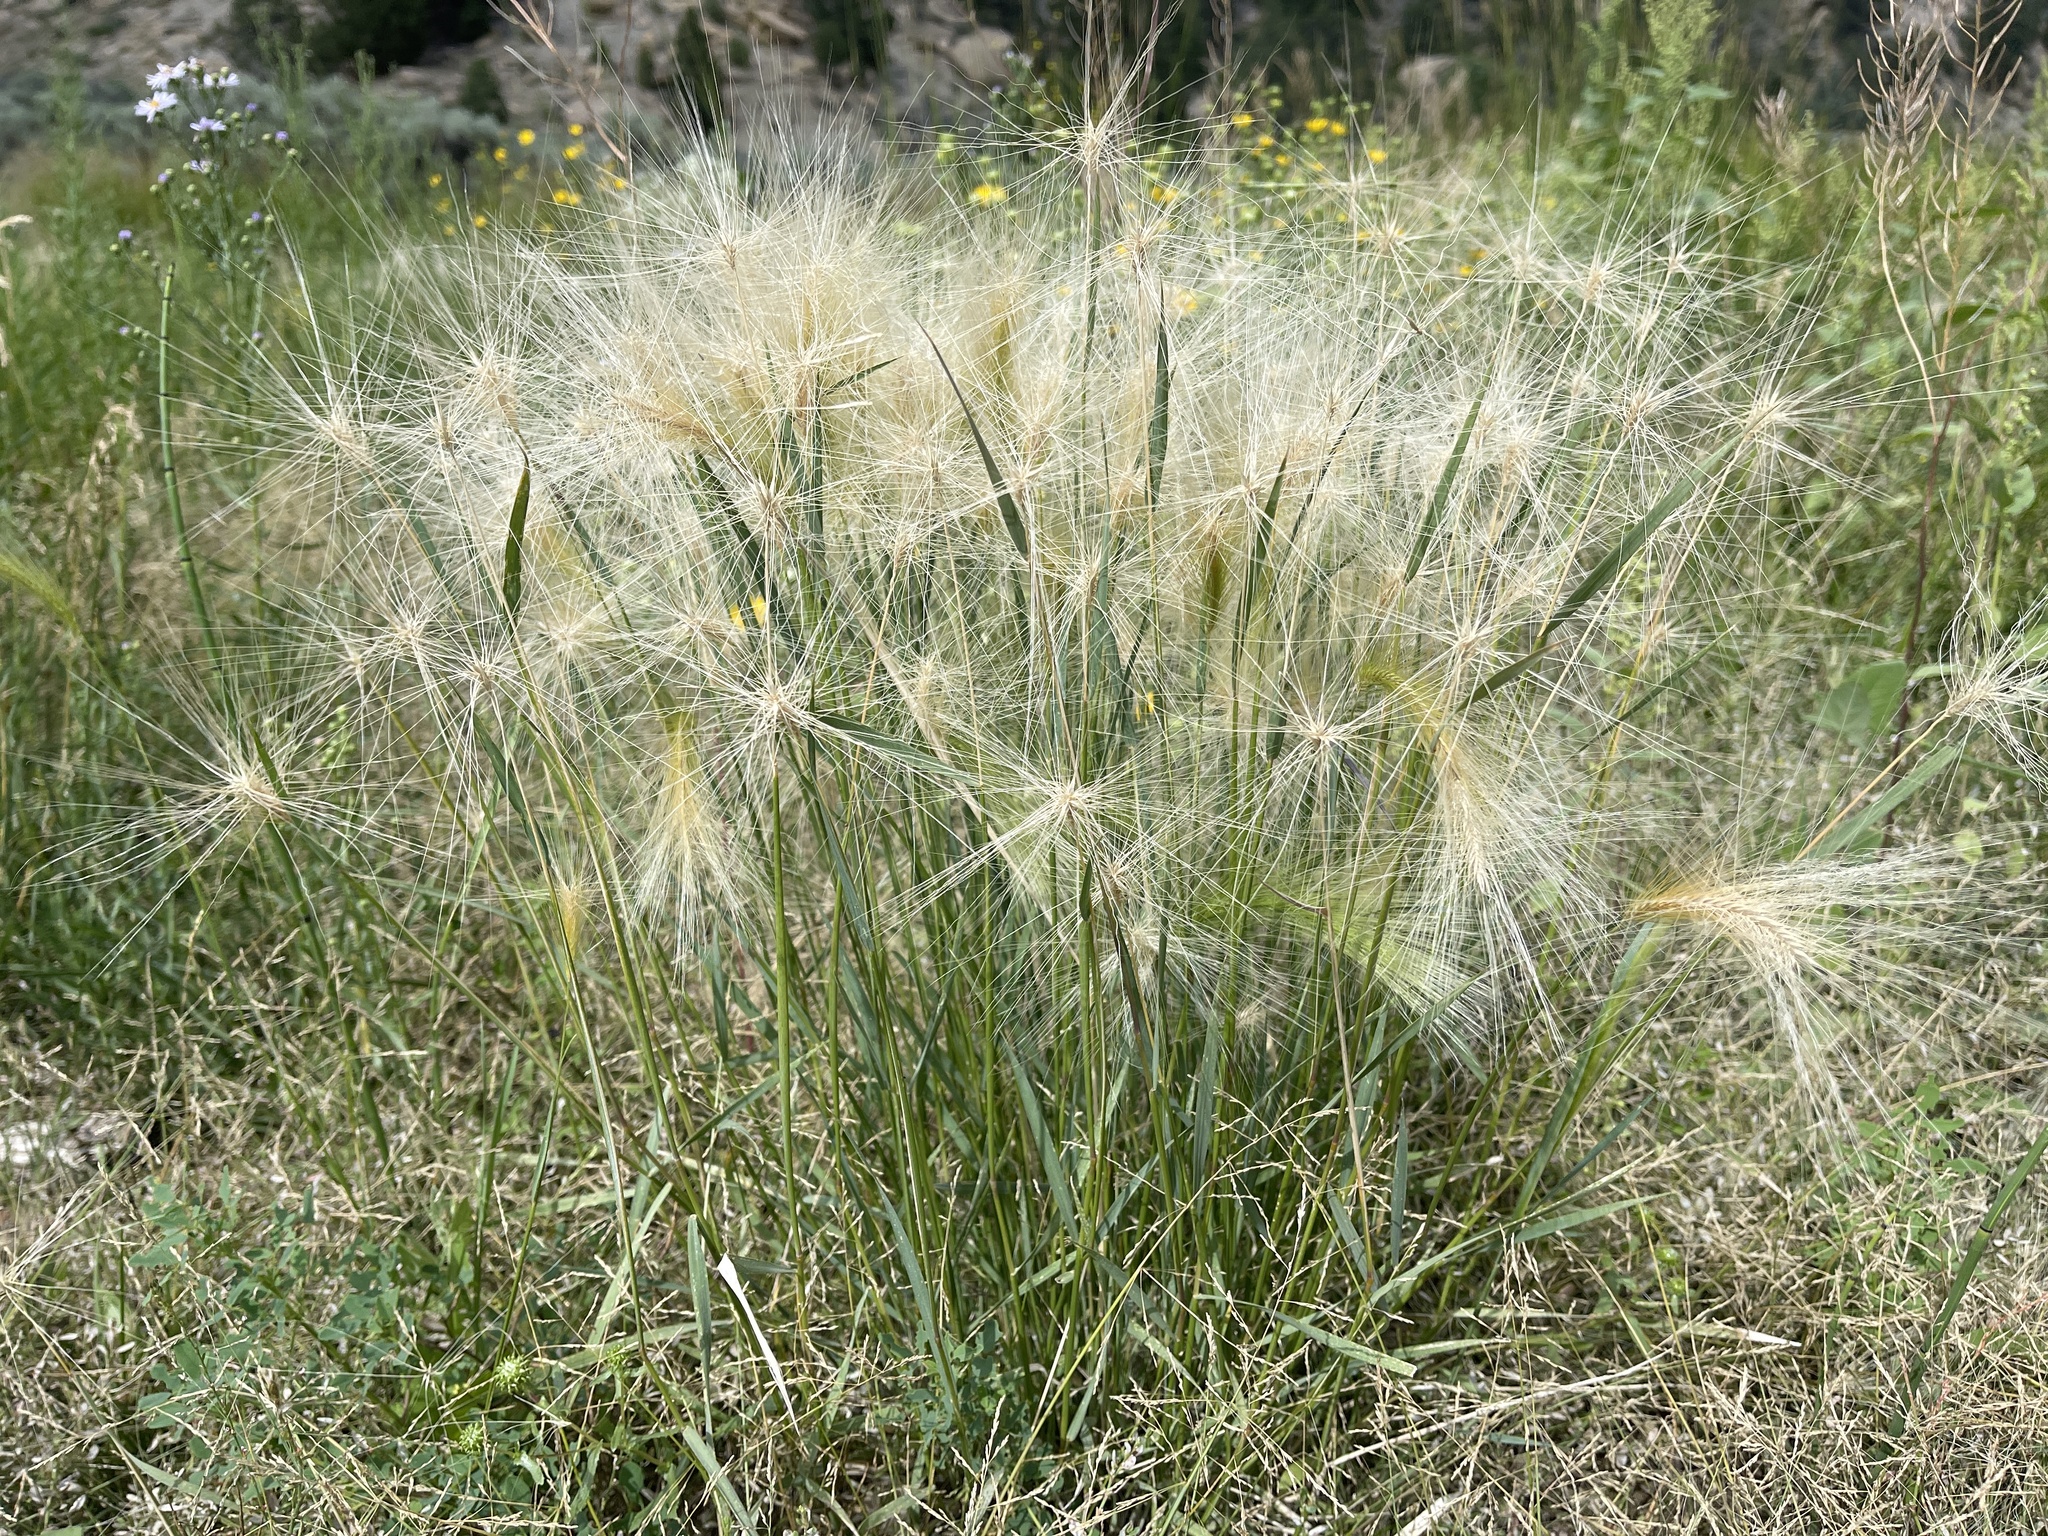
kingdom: Plantae
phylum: Tracheophyta
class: Liliopsida
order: Poales
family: Poaceae
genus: Elymus
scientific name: Elymus elymoides
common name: Bottlebrush squirreltail
